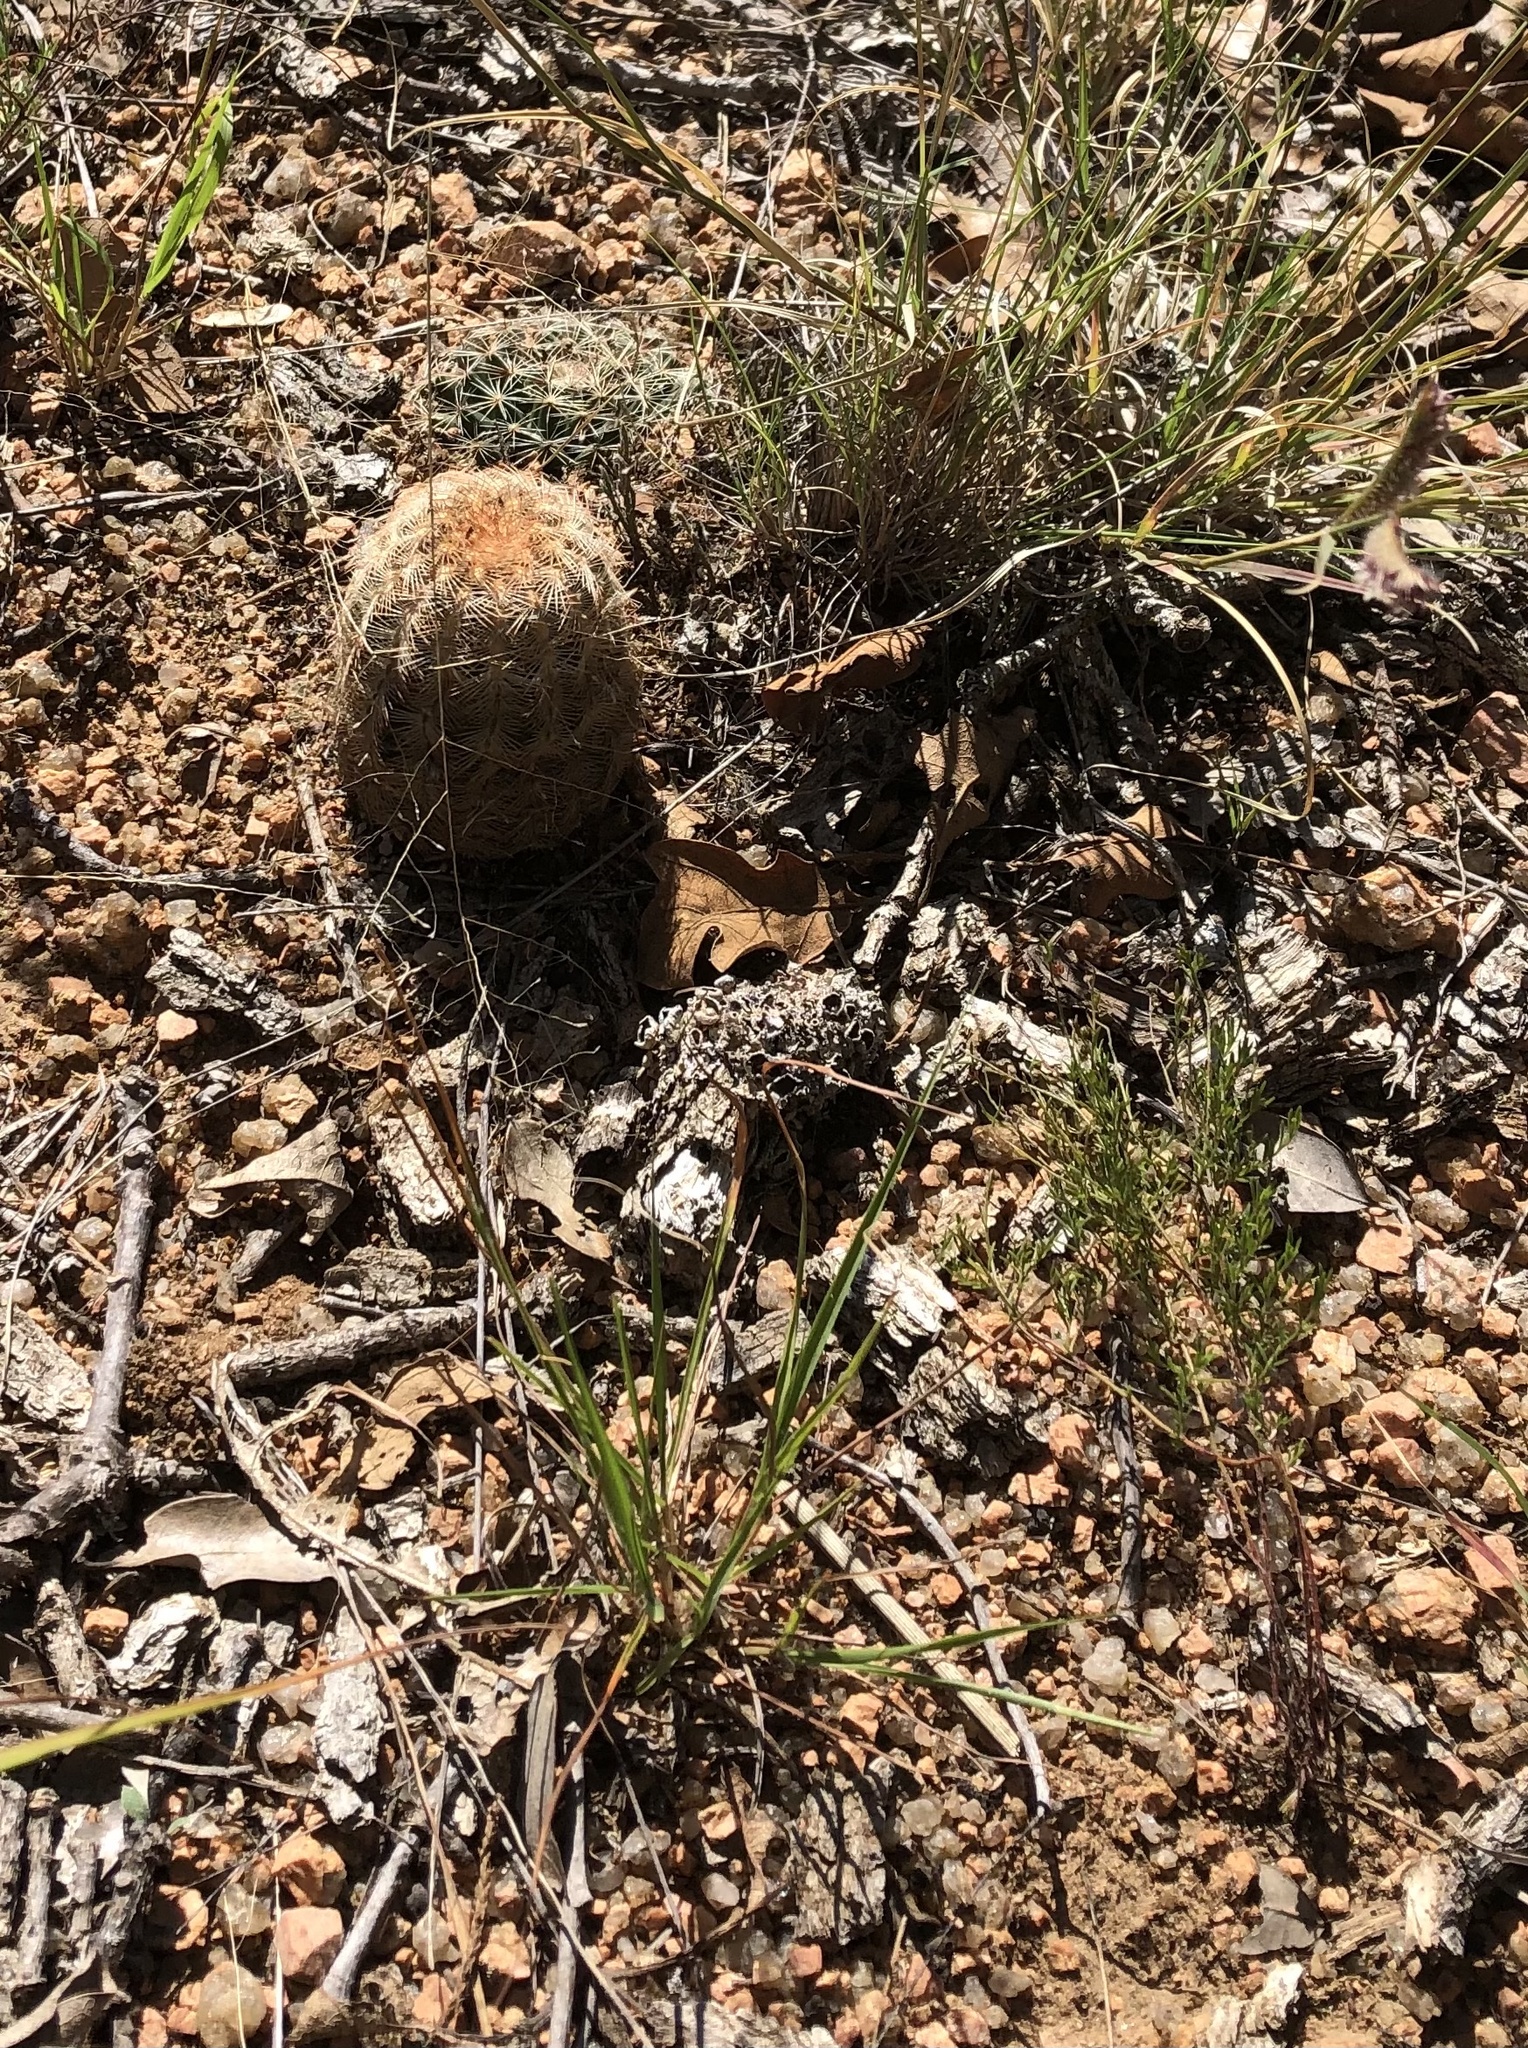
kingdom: Plantae
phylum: Tracheophyta
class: Magnoliopsida
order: Caryophyllales
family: Cactaceae
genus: Echinocereus
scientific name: Echinocereus reichenbachii
